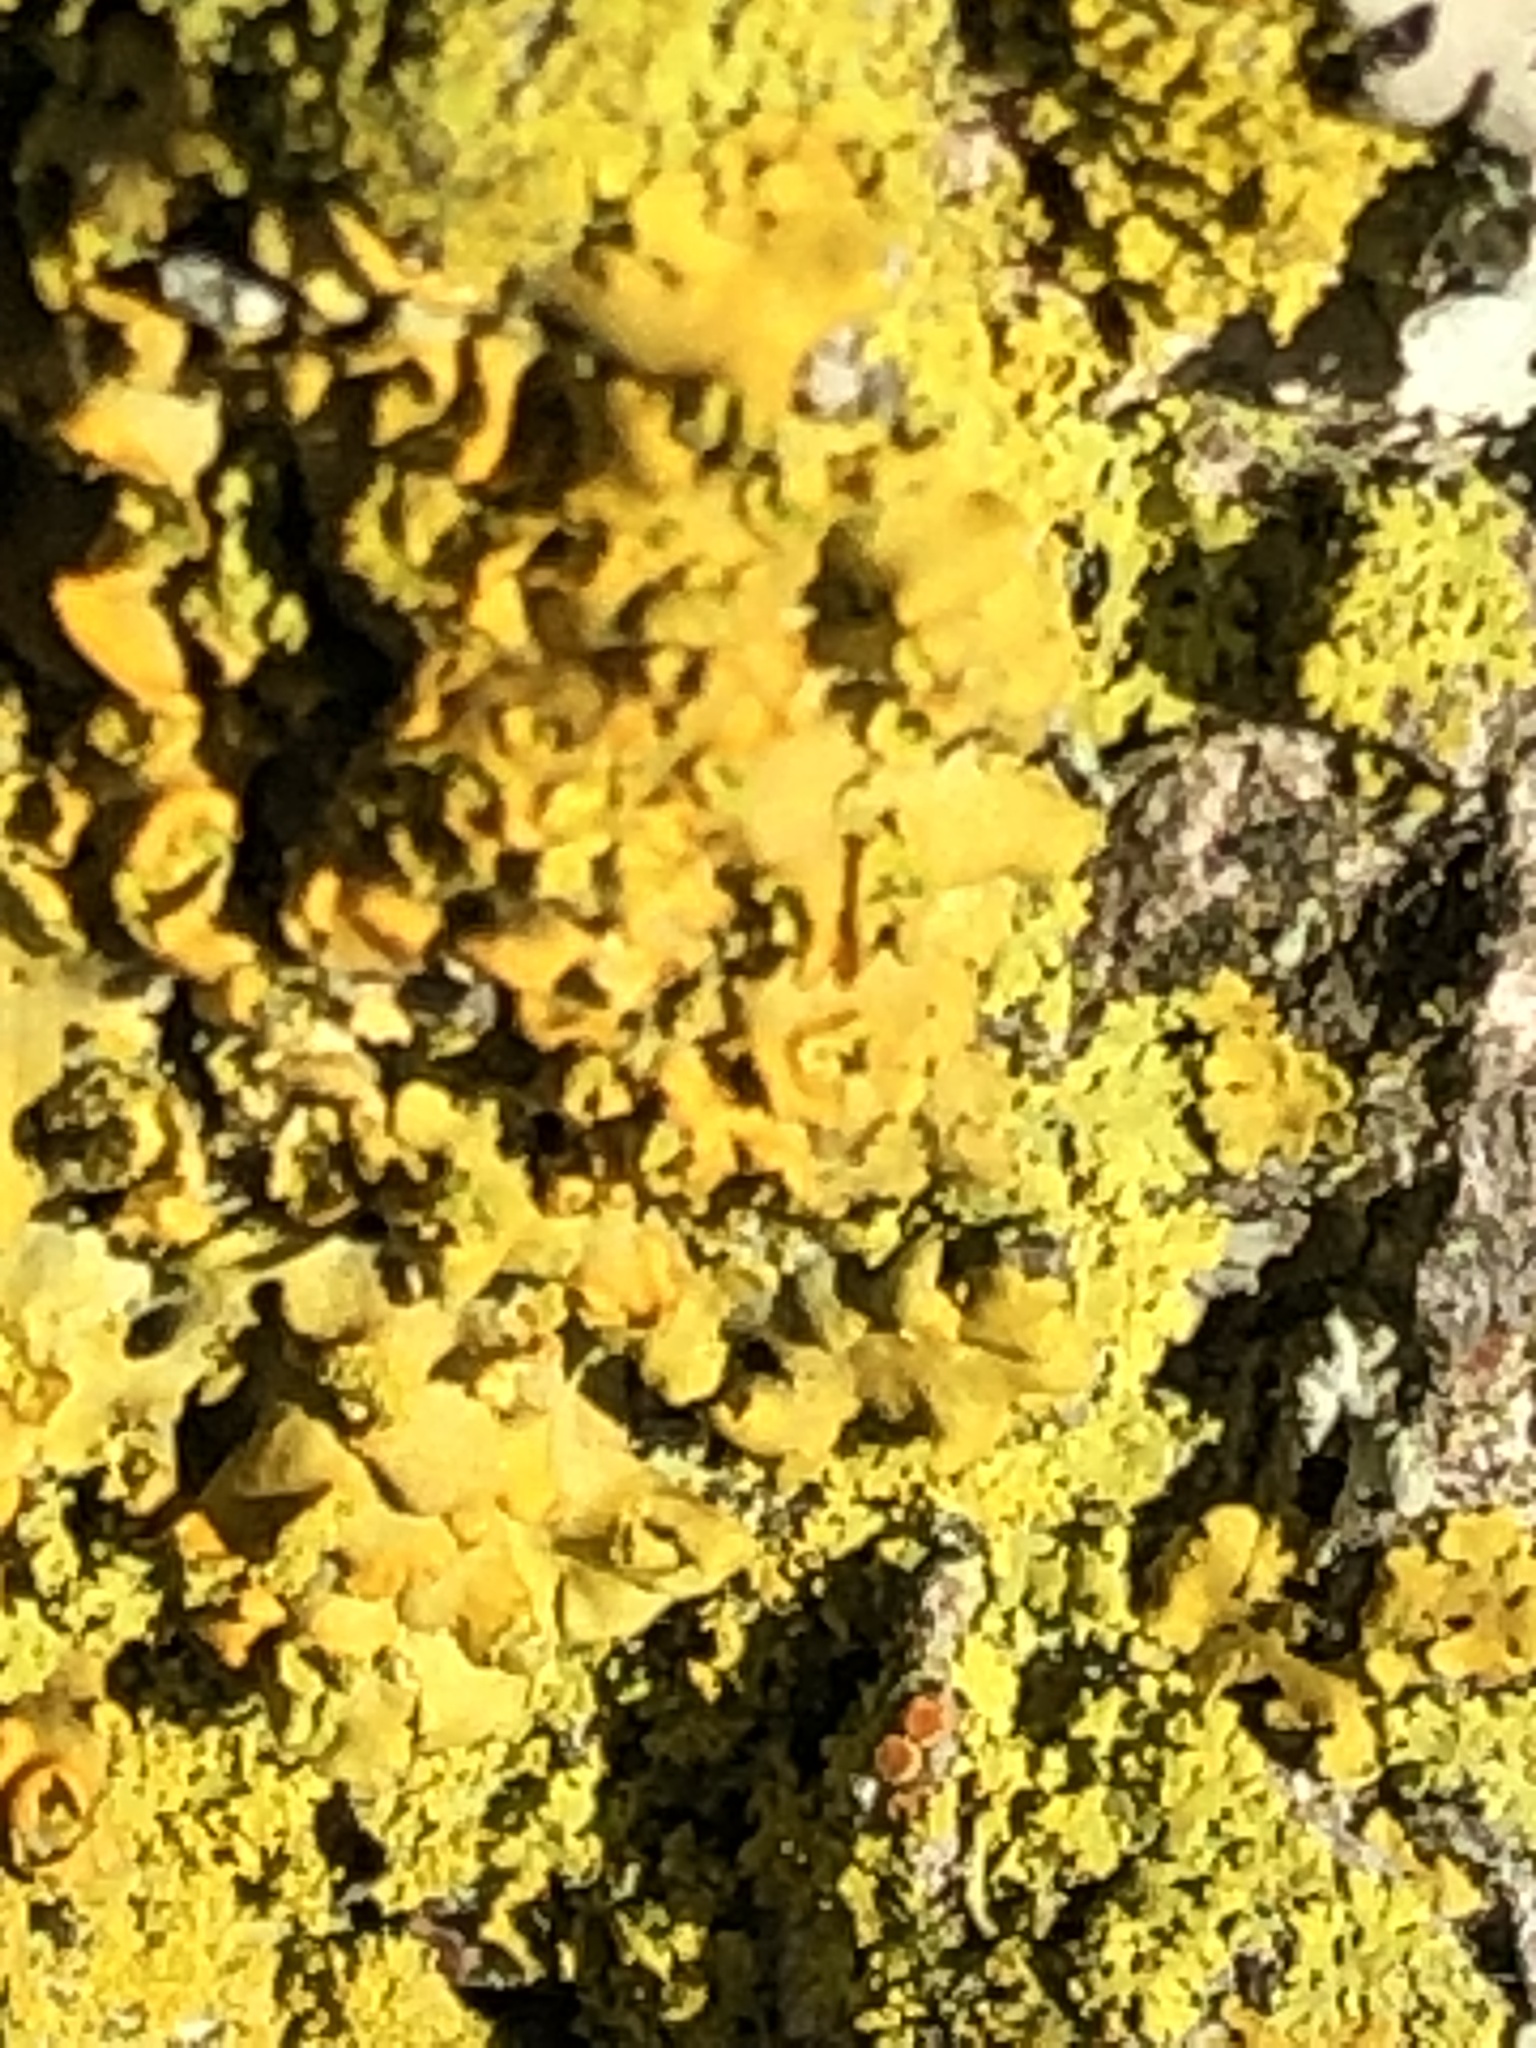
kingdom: Fungi
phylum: Ascomycota
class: Lecanoromycetes
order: Teloschistales
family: Teloschistaceae
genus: Oxneria
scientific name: Oxneria fallax
